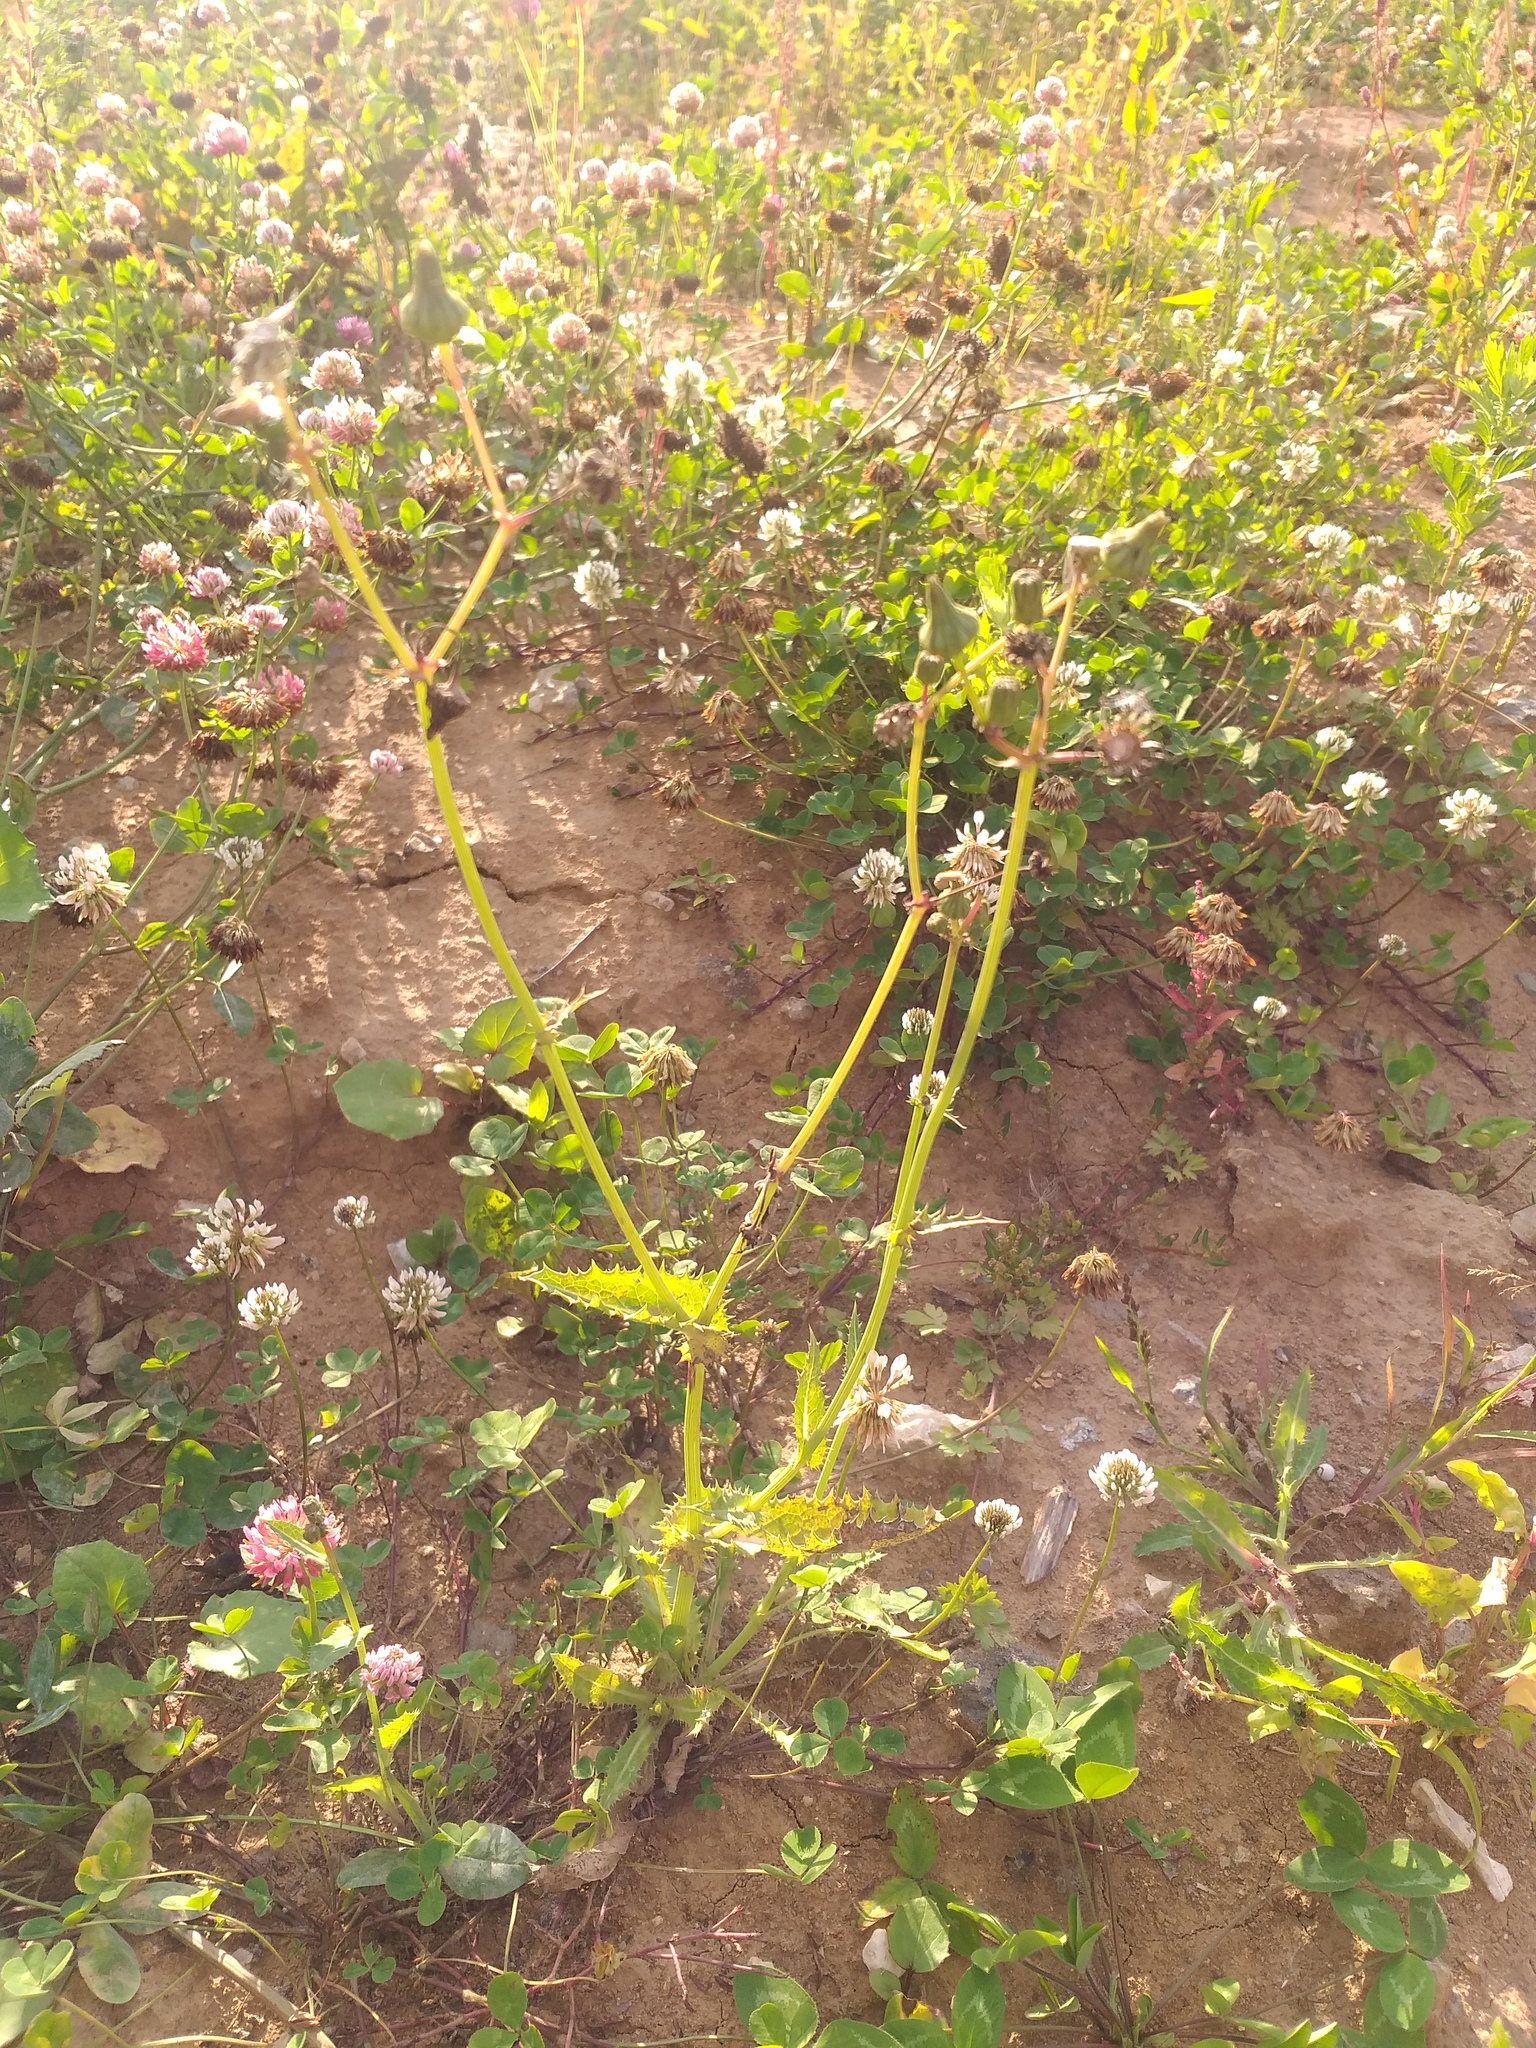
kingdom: Plantae
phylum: Tracheophyta
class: Magnoliopsida
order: Asterales
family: Asteraceae
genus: Sonchus
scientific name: Sonchus asper
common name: Prickly sow-thistle
